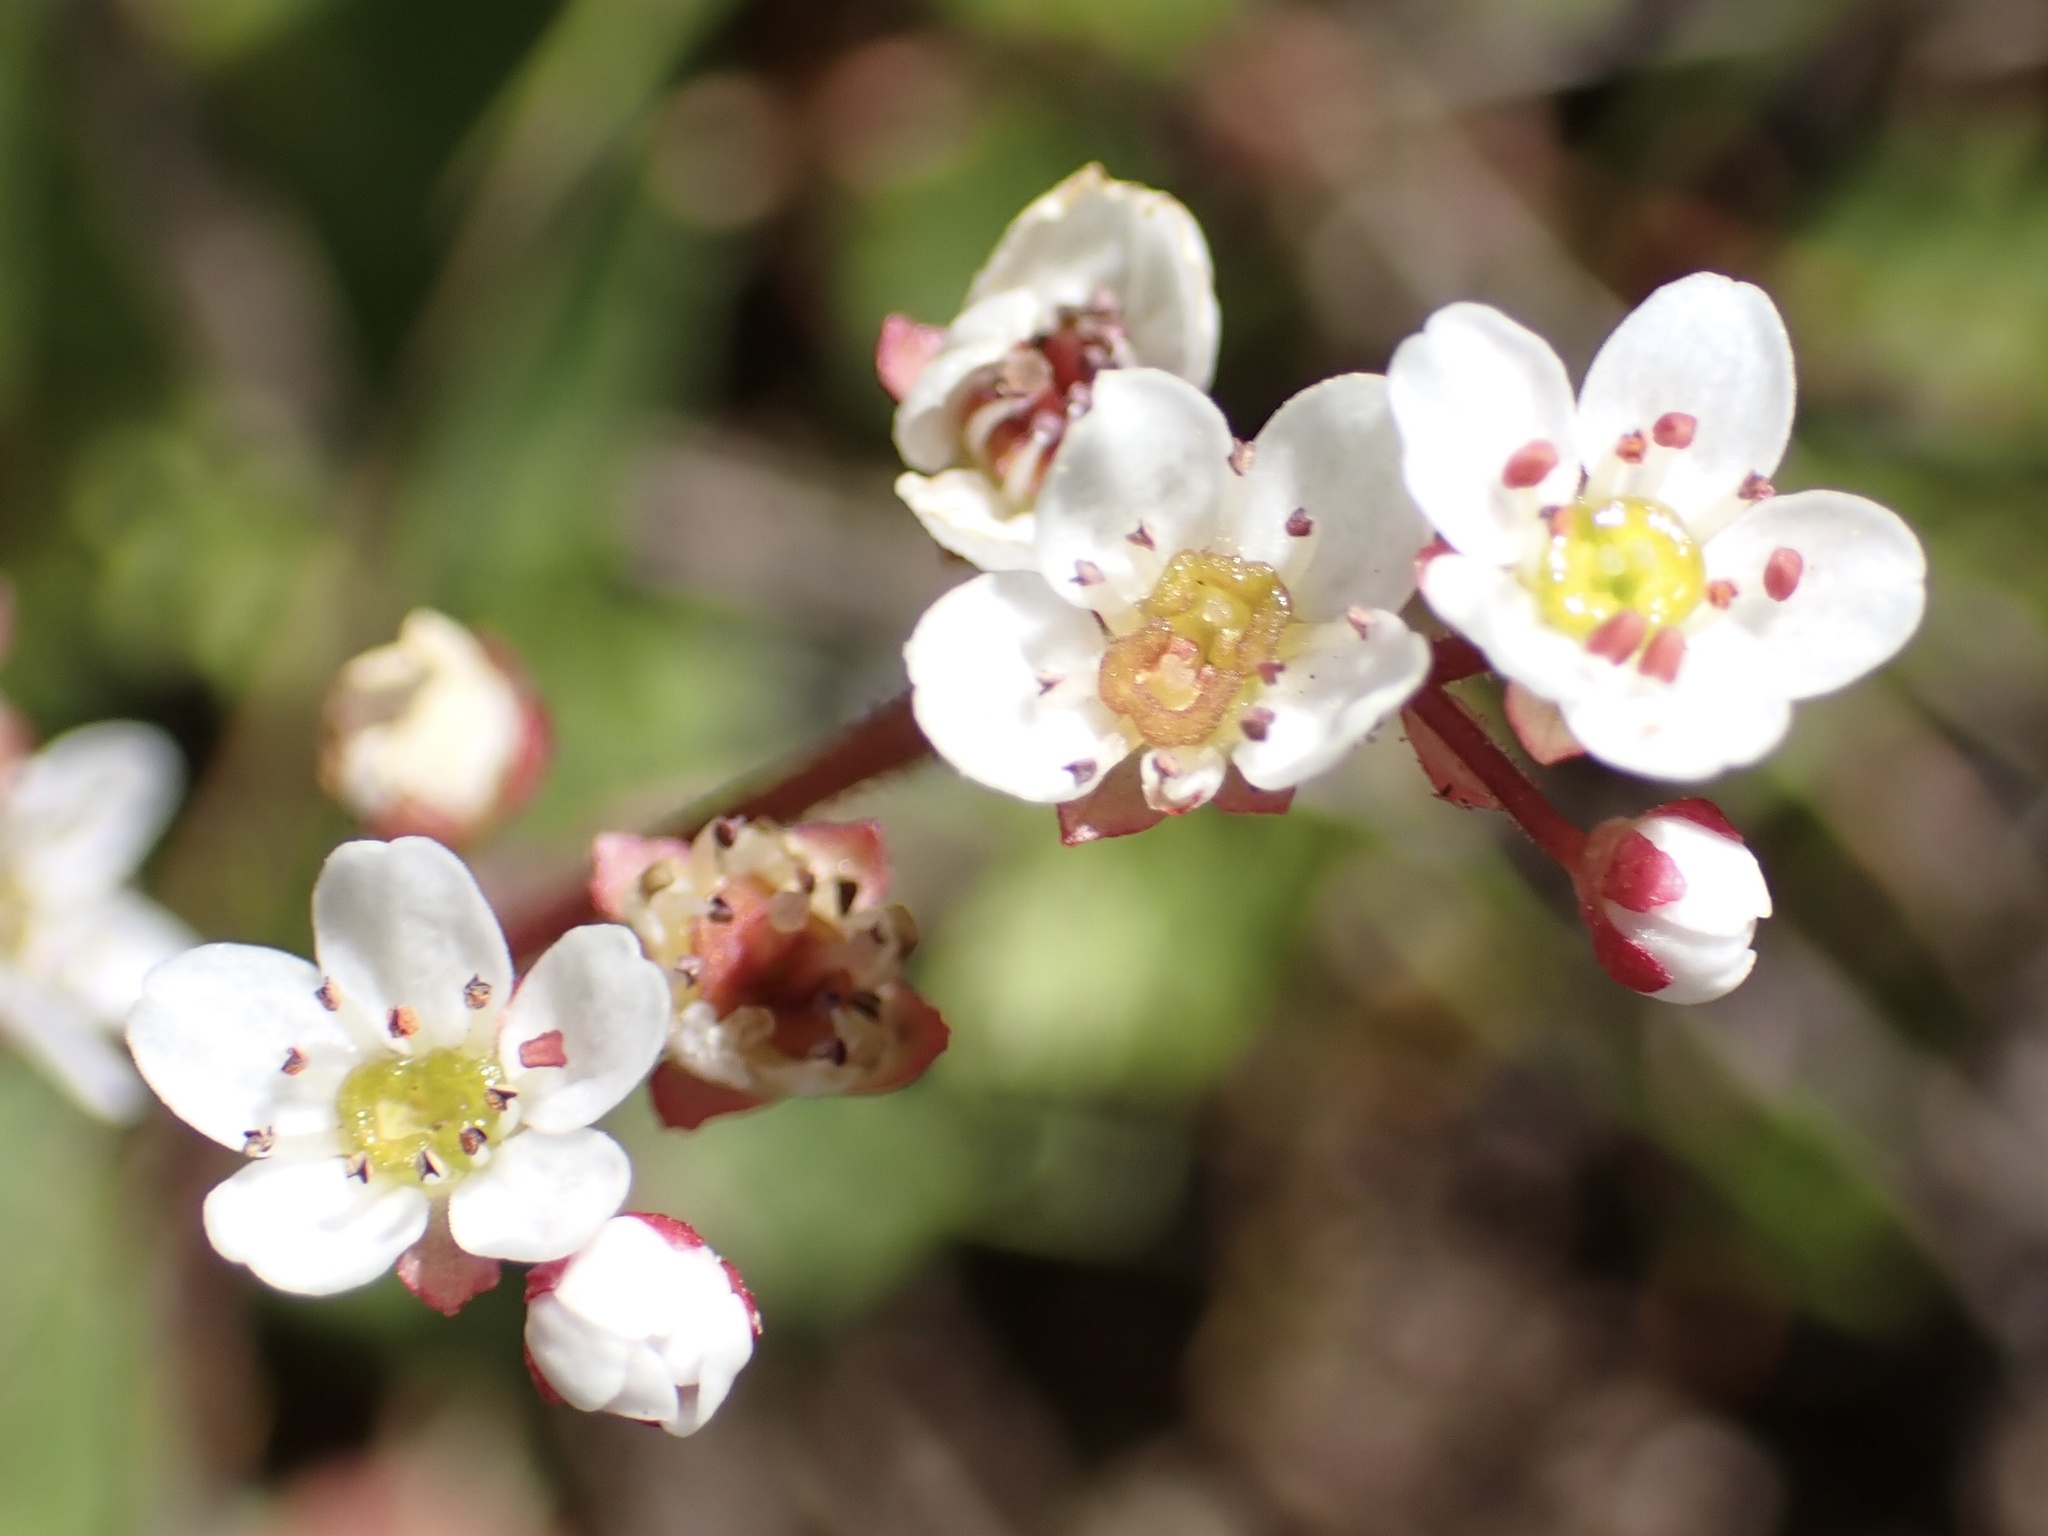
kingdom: Plantae
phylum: Tracheophyta
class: Magnoliopsida
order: Saxifragales
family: Saxifragaceae
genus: Micranthes
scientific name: Micranthes californica
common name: California saxifrage
